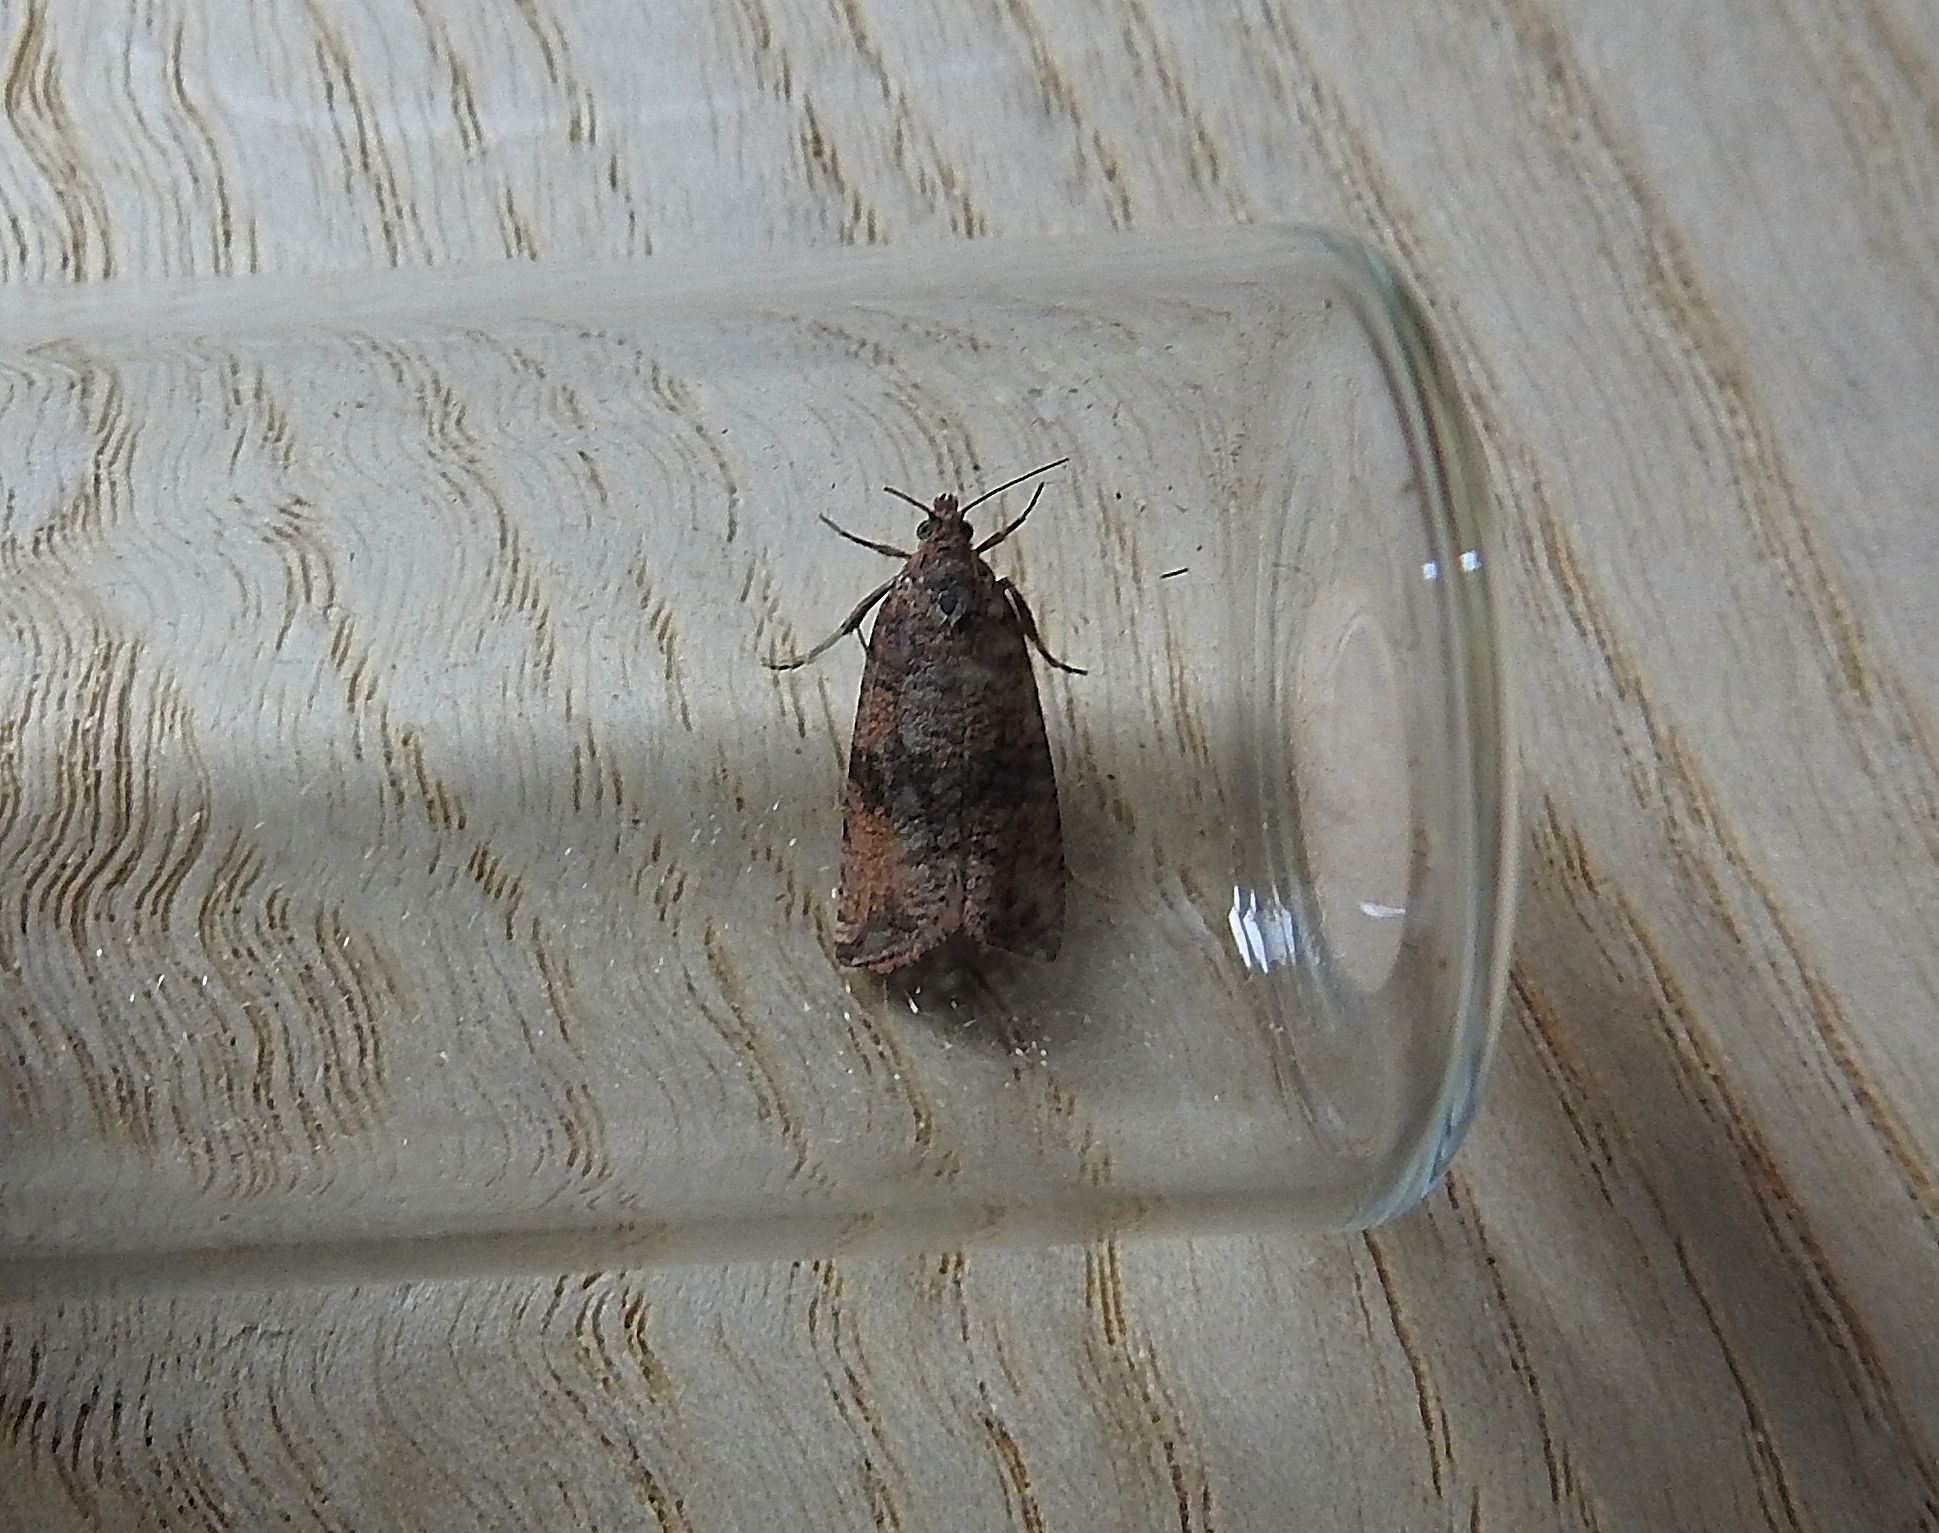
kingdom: Animalia
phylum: Arthropoda
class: Insecta
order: Lepidoptera
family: Tortricidae
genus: Celypha
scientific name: Celypha striana
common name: Barred marble
